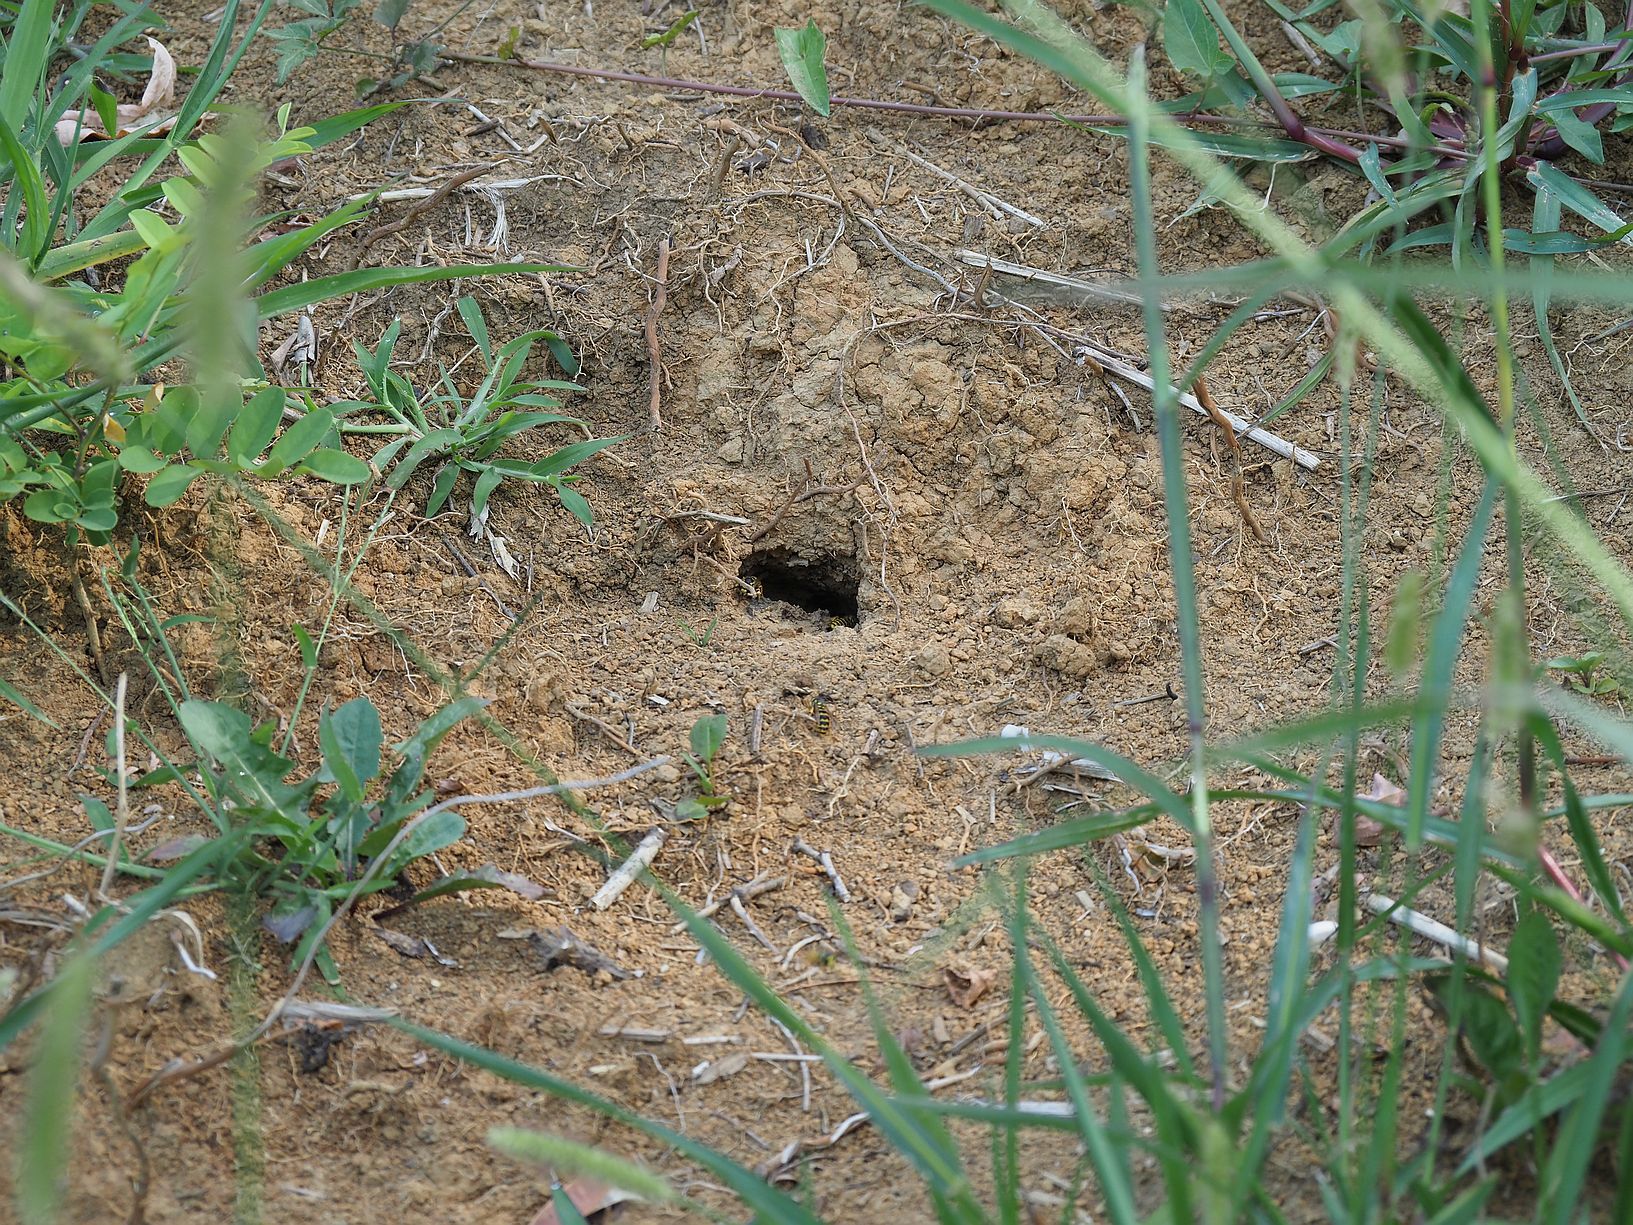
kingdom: Animalia
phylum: Arthropoda
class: Insecta
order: Hymenoptera
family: Vespidae
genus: Vespula
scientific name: Vespula germanica
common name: German wasp
